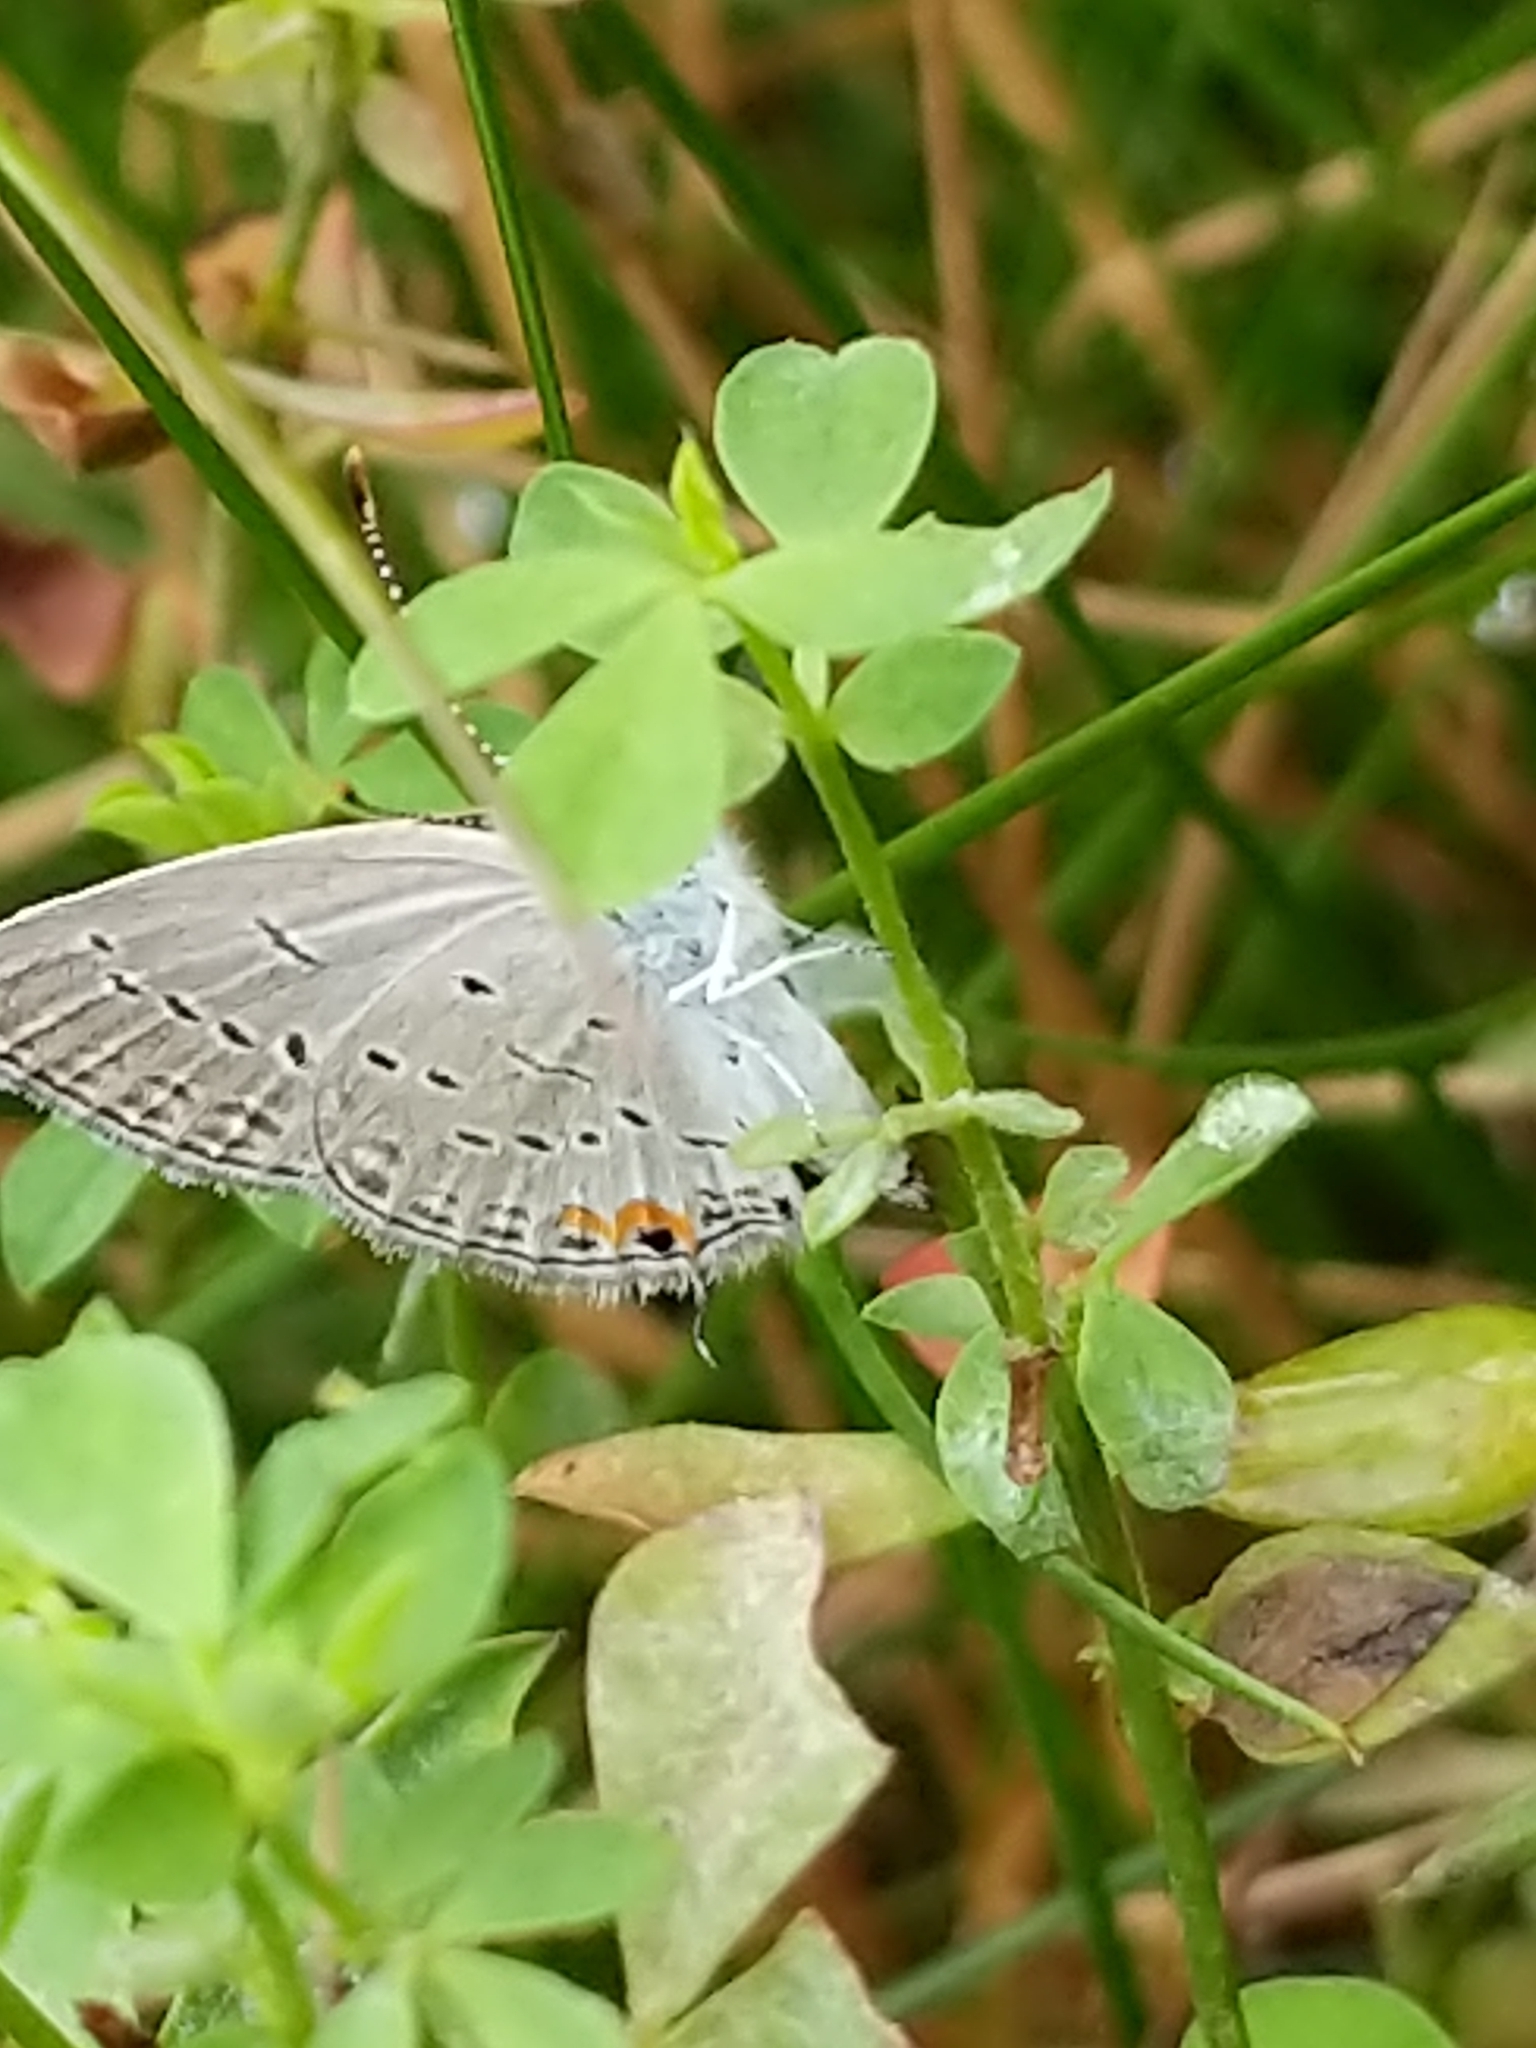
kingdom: Animalia
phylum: Arthropoda
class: Insecta
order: Lepidoptera
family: Lycaenidae
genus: Elkalyce
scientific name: Elkalyce comyntas
